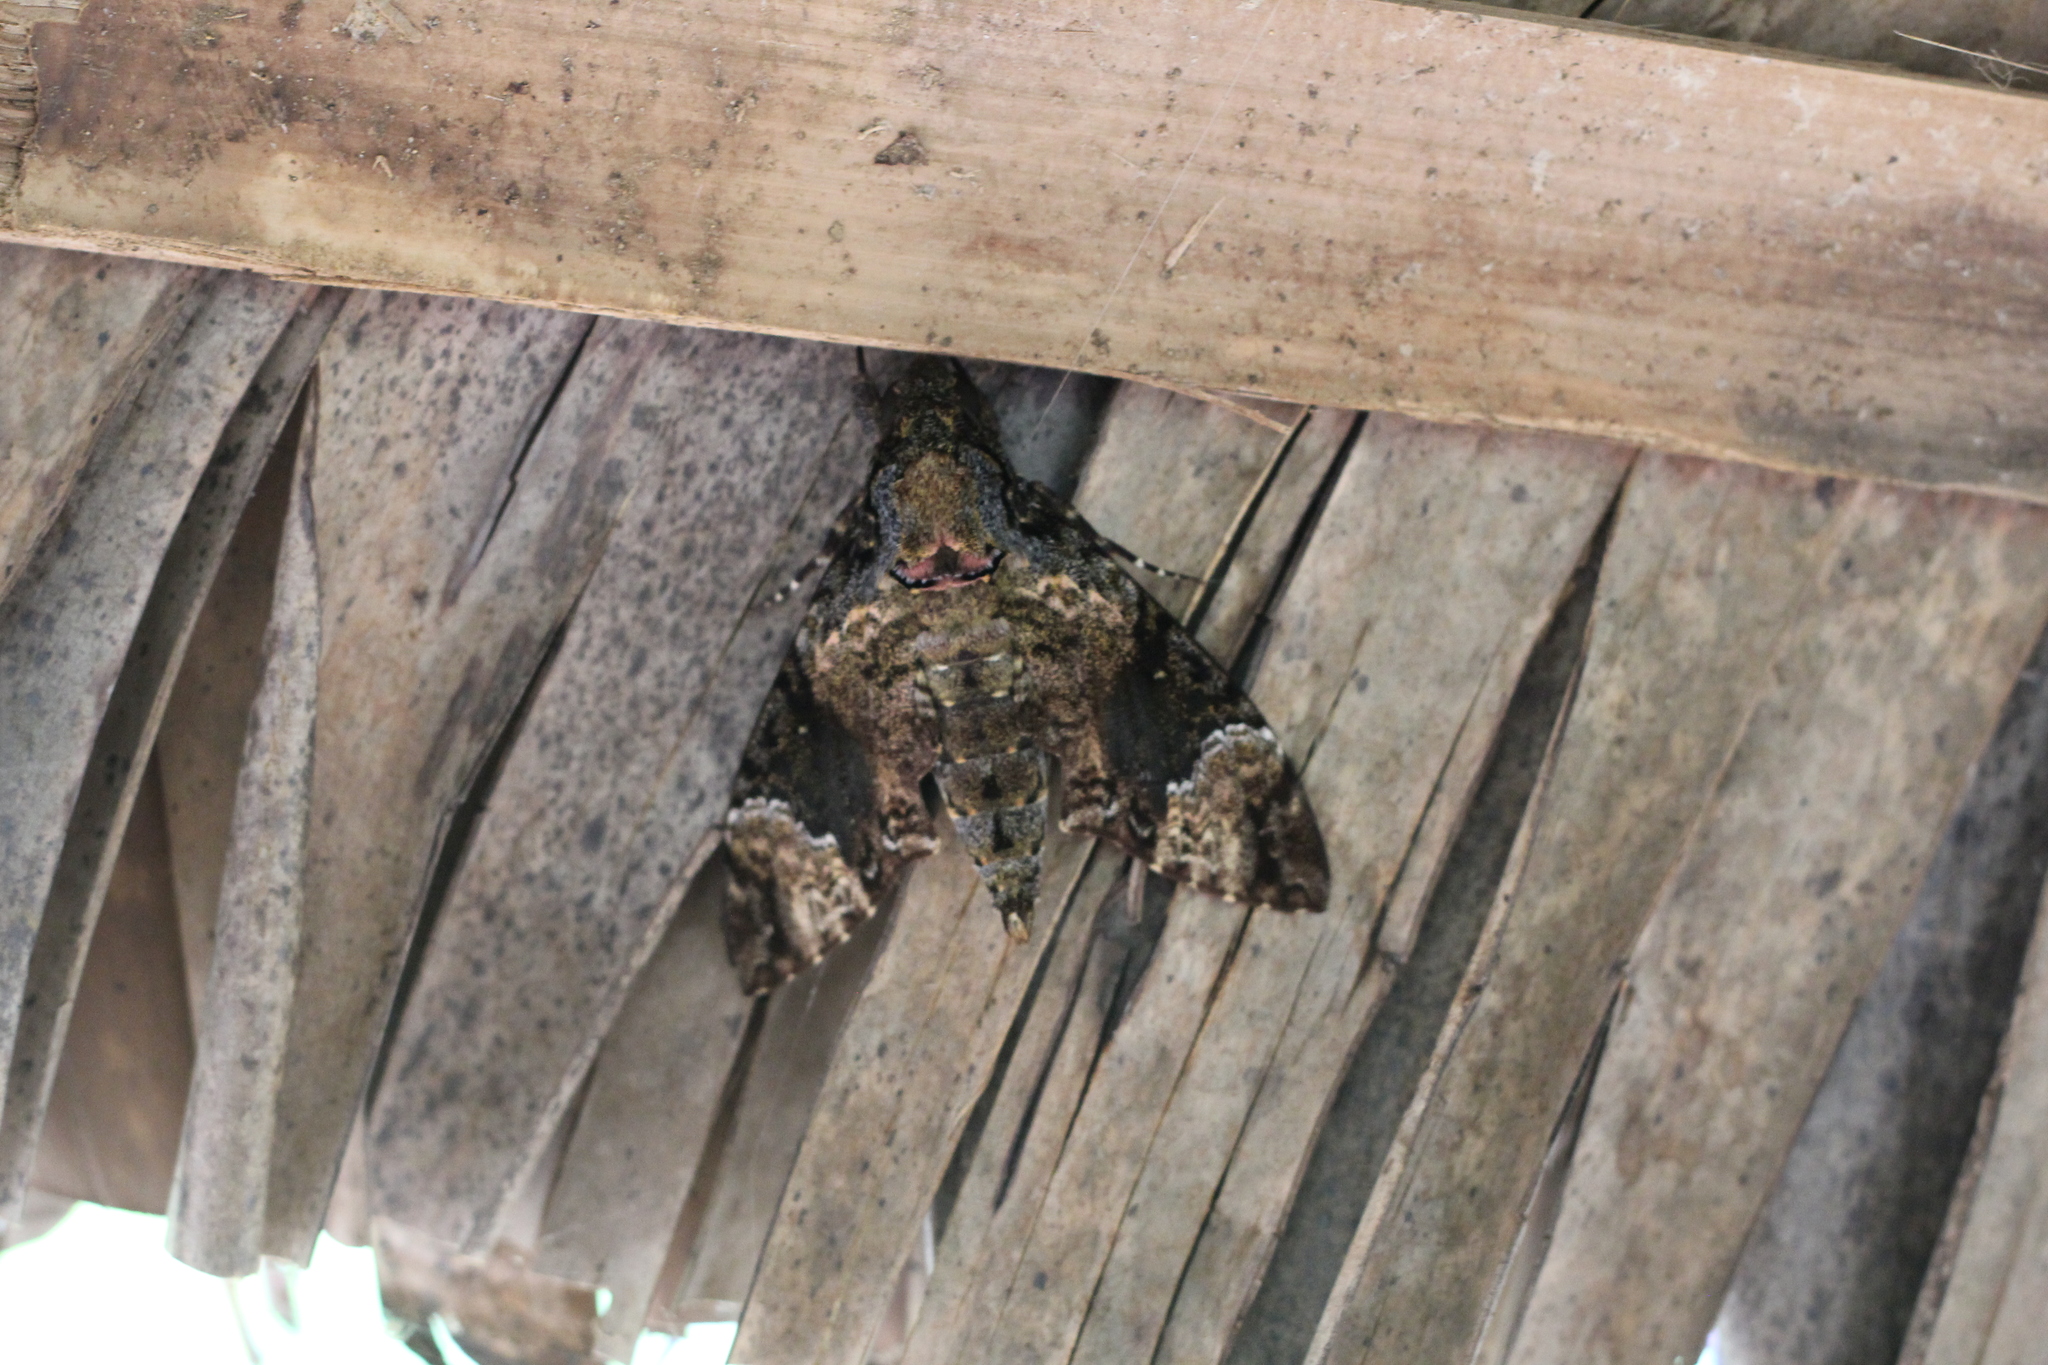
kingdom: Animalia
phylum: Arthropoda
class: Insecta
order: Lepidoptera
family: Sphingidae
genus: Coelonia
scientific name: Coelonia fulvinotata
